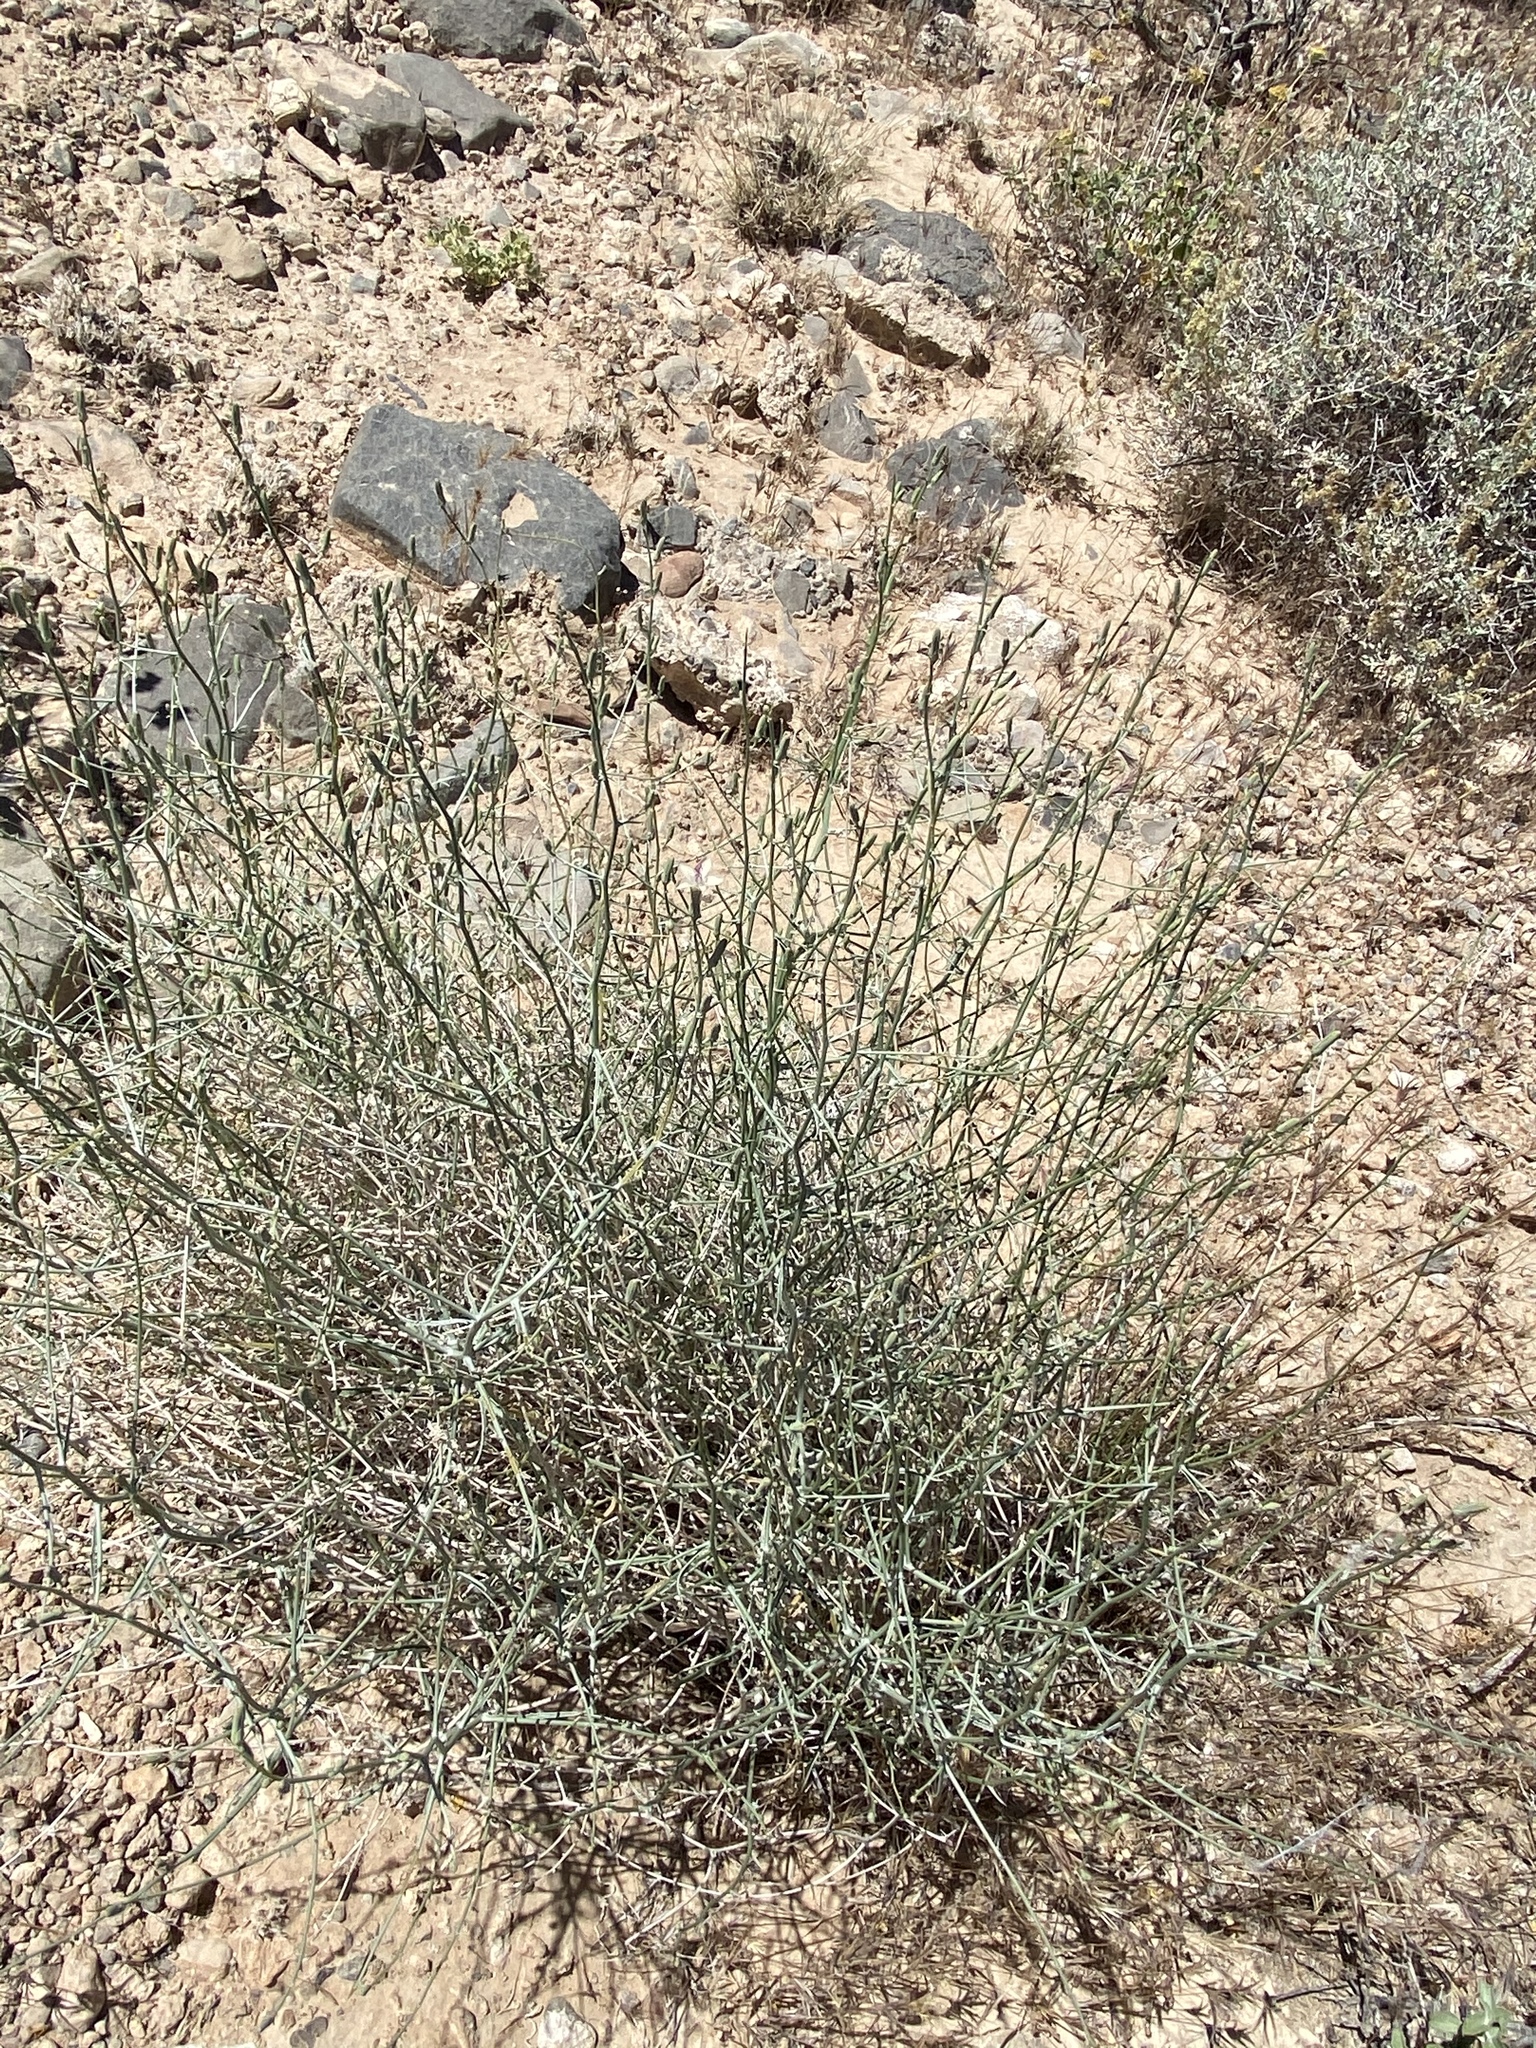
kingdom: Plantae
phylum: Tracheophyta
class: Magnoliopsida
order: Asterales
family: Asteraceae
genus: Stephanomeria
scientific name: Stephanomeria pauciflora
